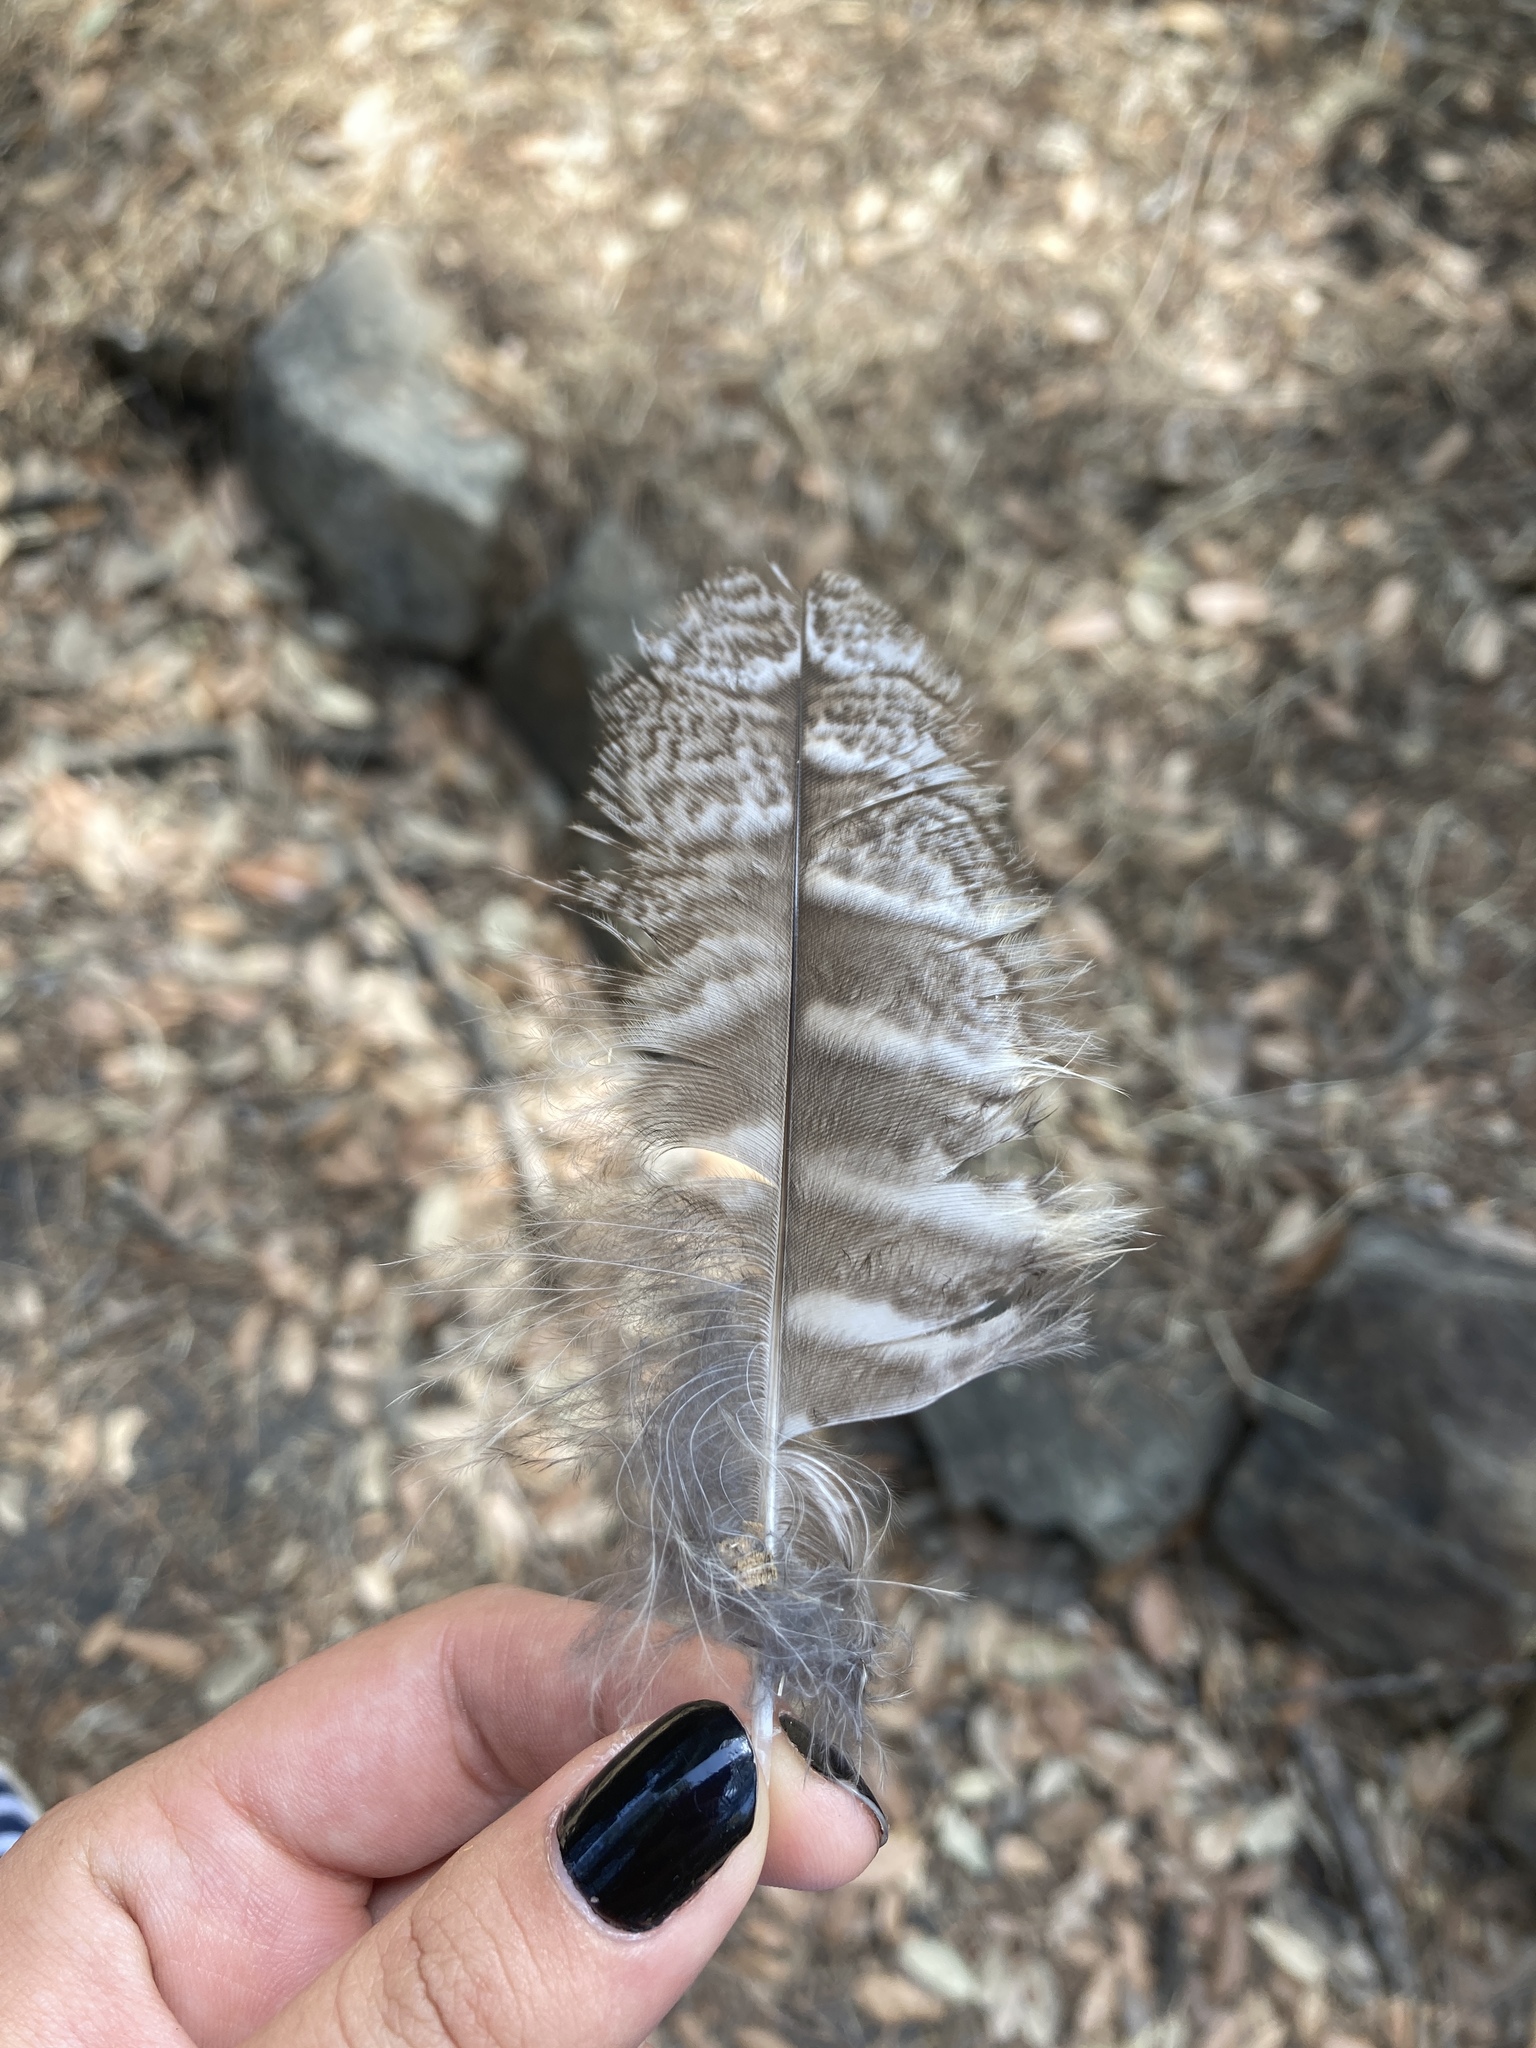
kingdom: Animalia
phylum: Chordata
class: Aves
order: Strigiformes
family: Strigidae
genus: Strix
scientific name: Strix aluco
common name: Tawny owl
